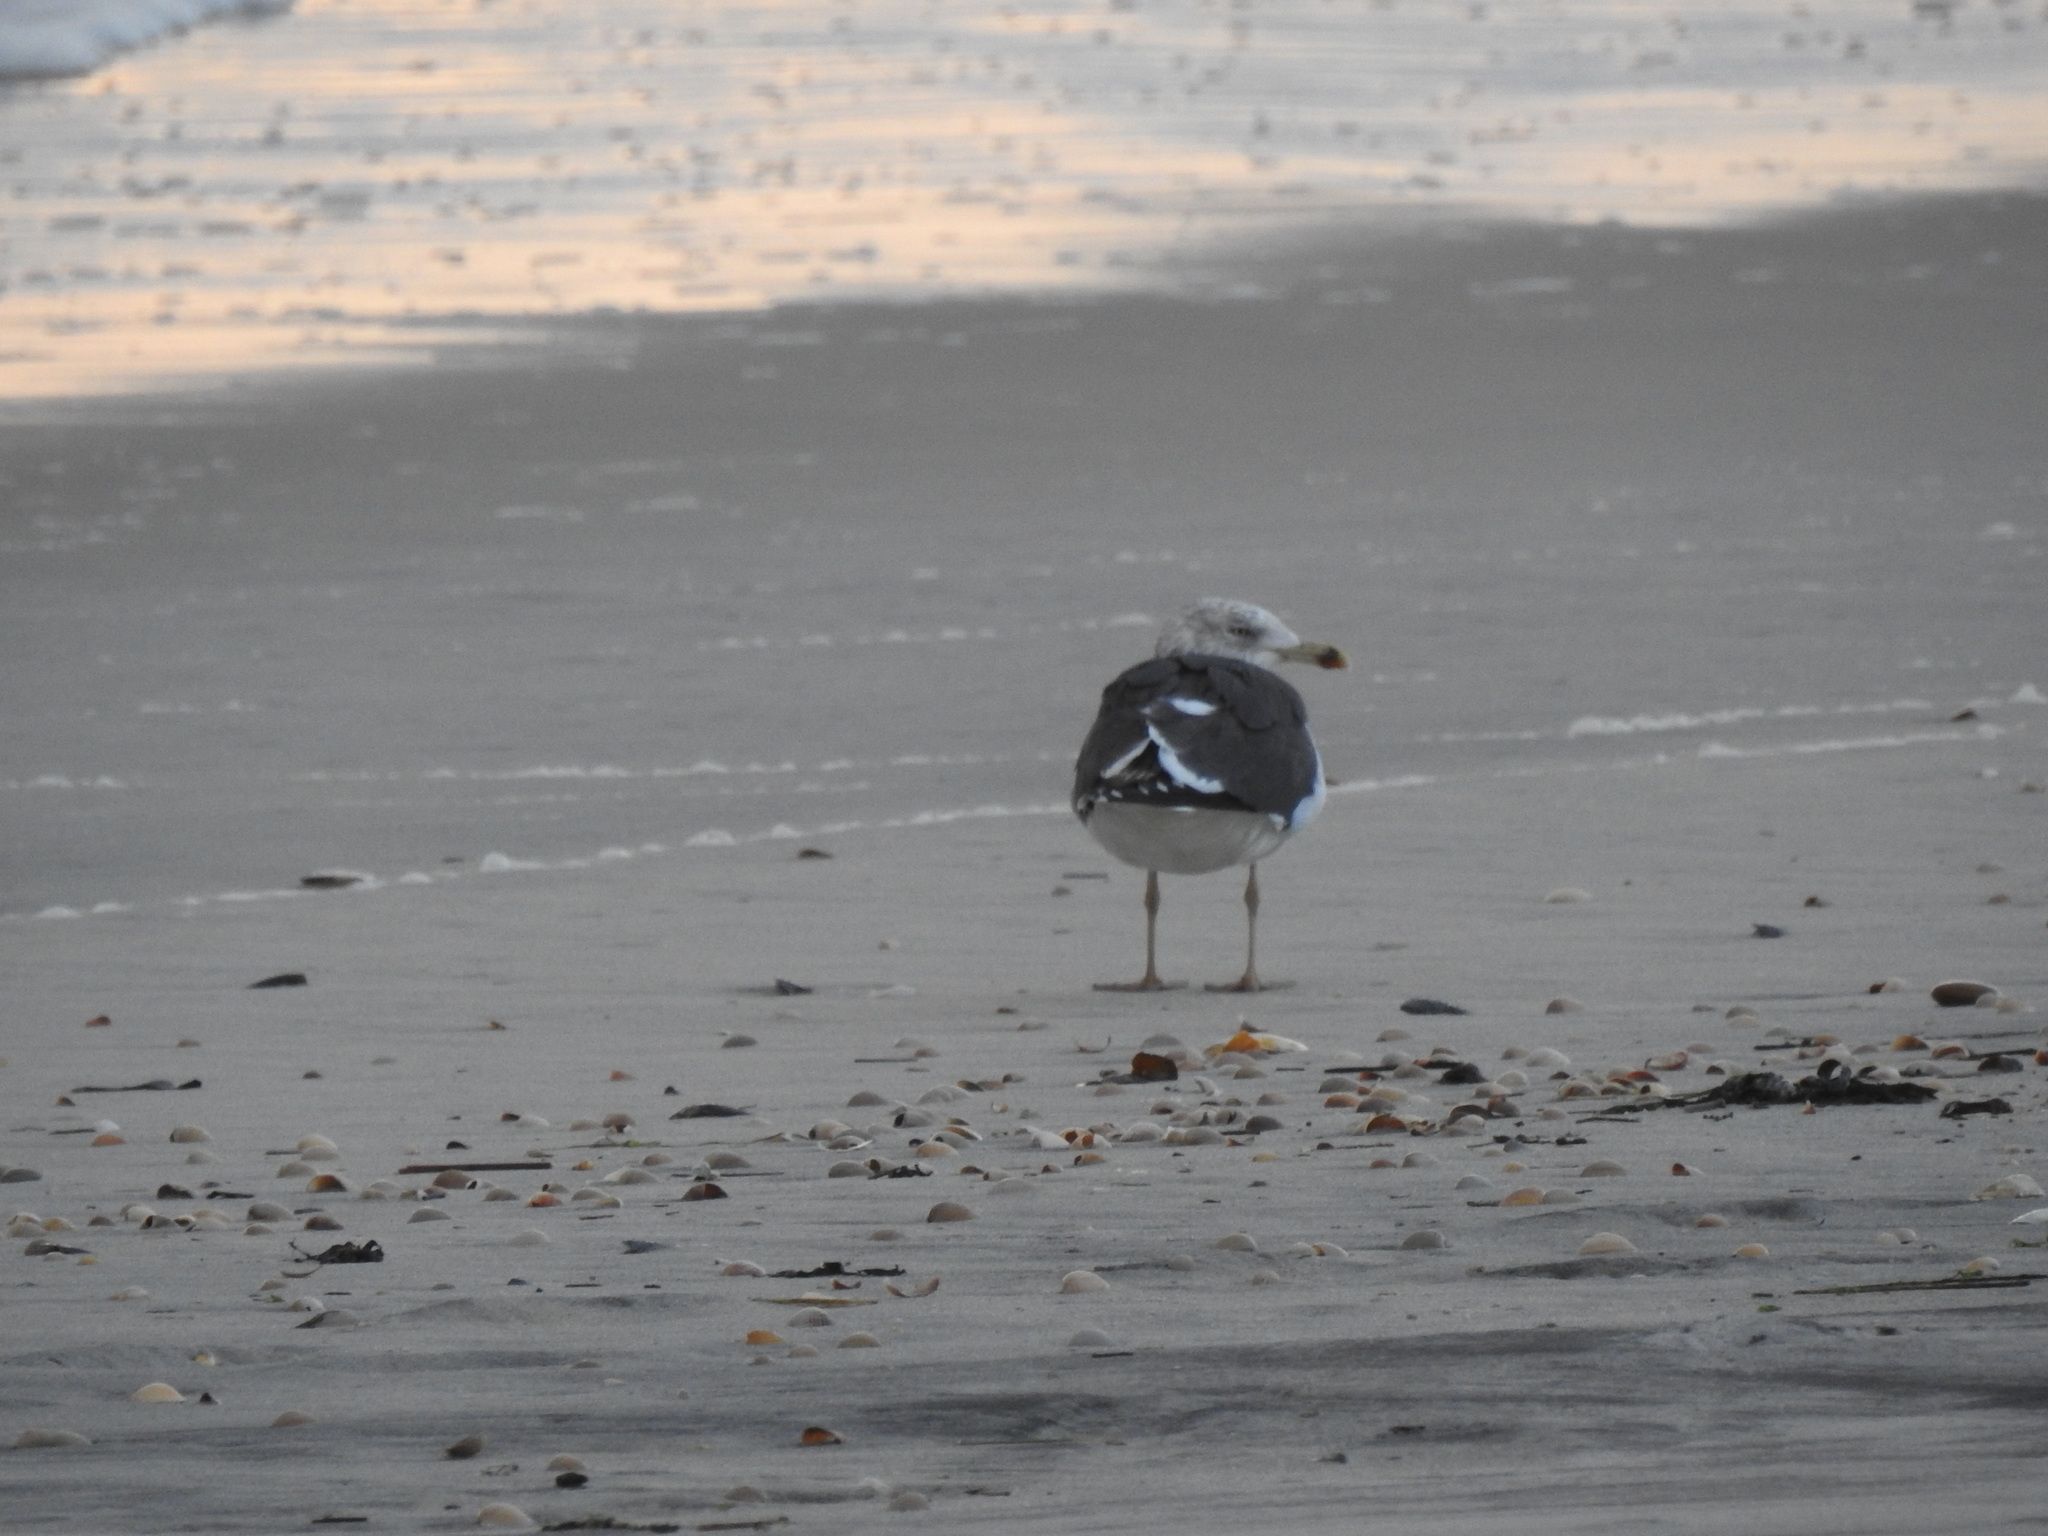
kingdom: Animalia
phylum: Chordata
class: Aves
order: Charadriiformes
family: Laridae
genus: Larus
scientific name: Larus fuscus
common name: Lesser black-backed gull
